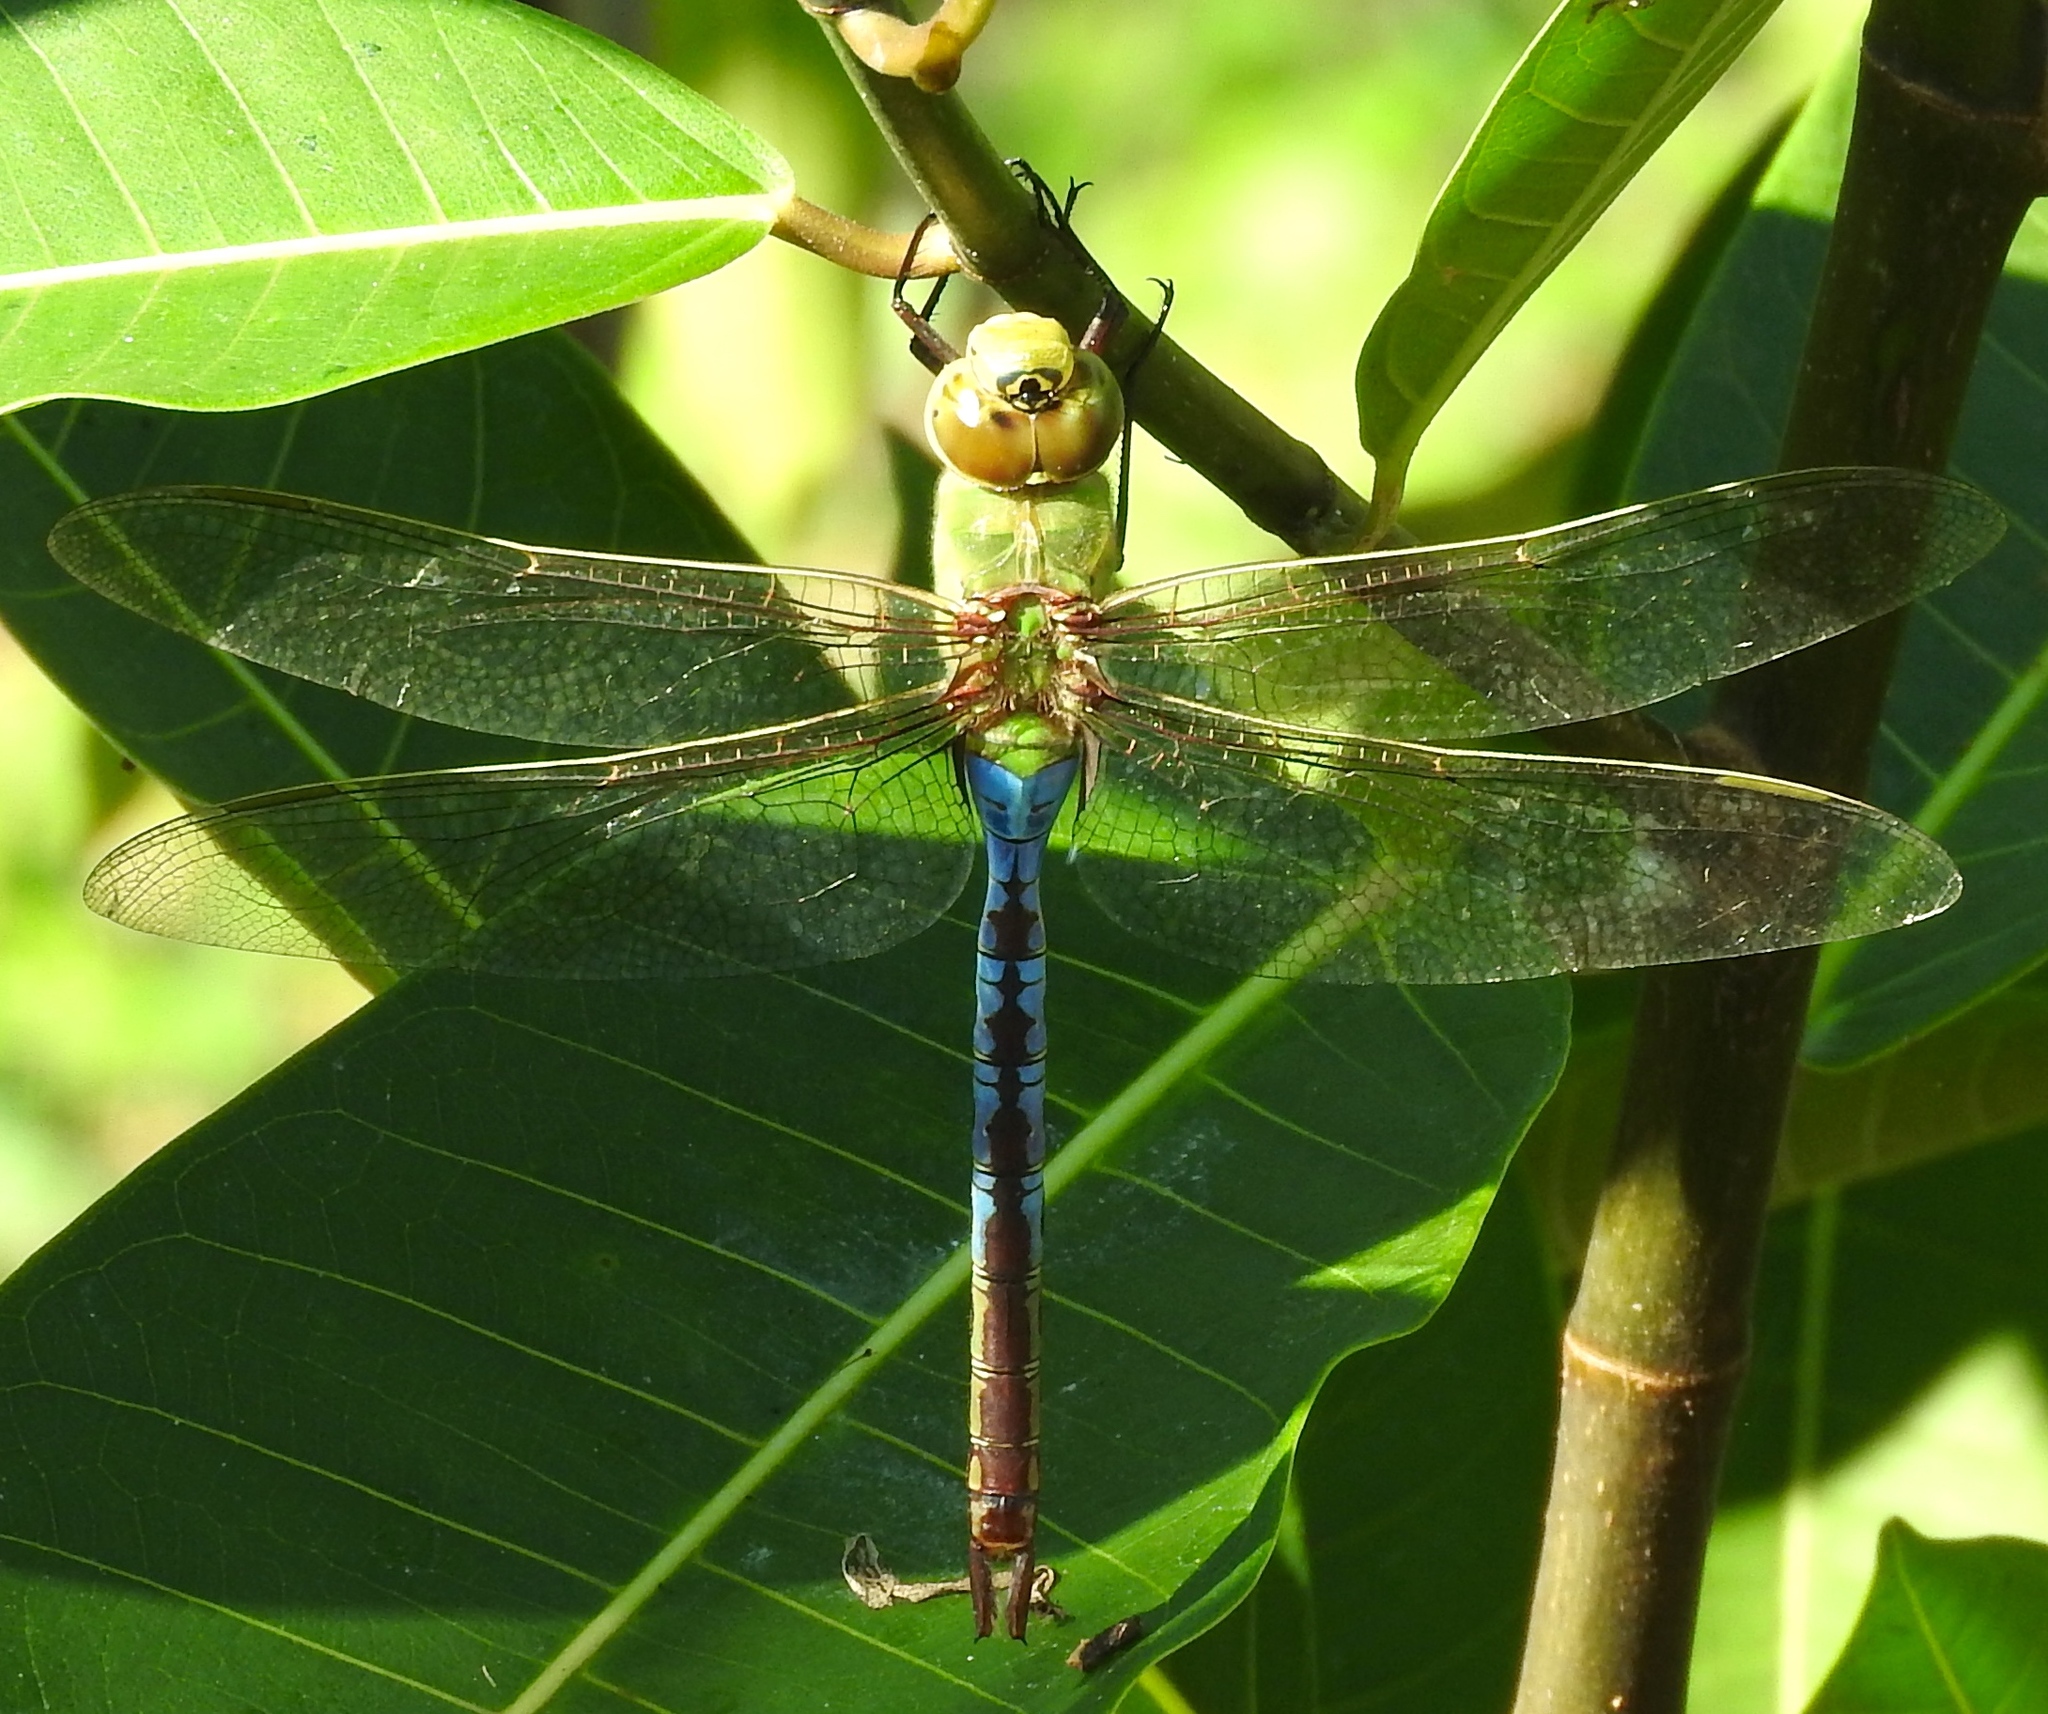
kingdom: Animalia
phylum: Arthropoda
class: Insecta
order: Odonata
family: Aeshnidae
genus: Anax
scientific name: Anax junius
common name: Common green darner
